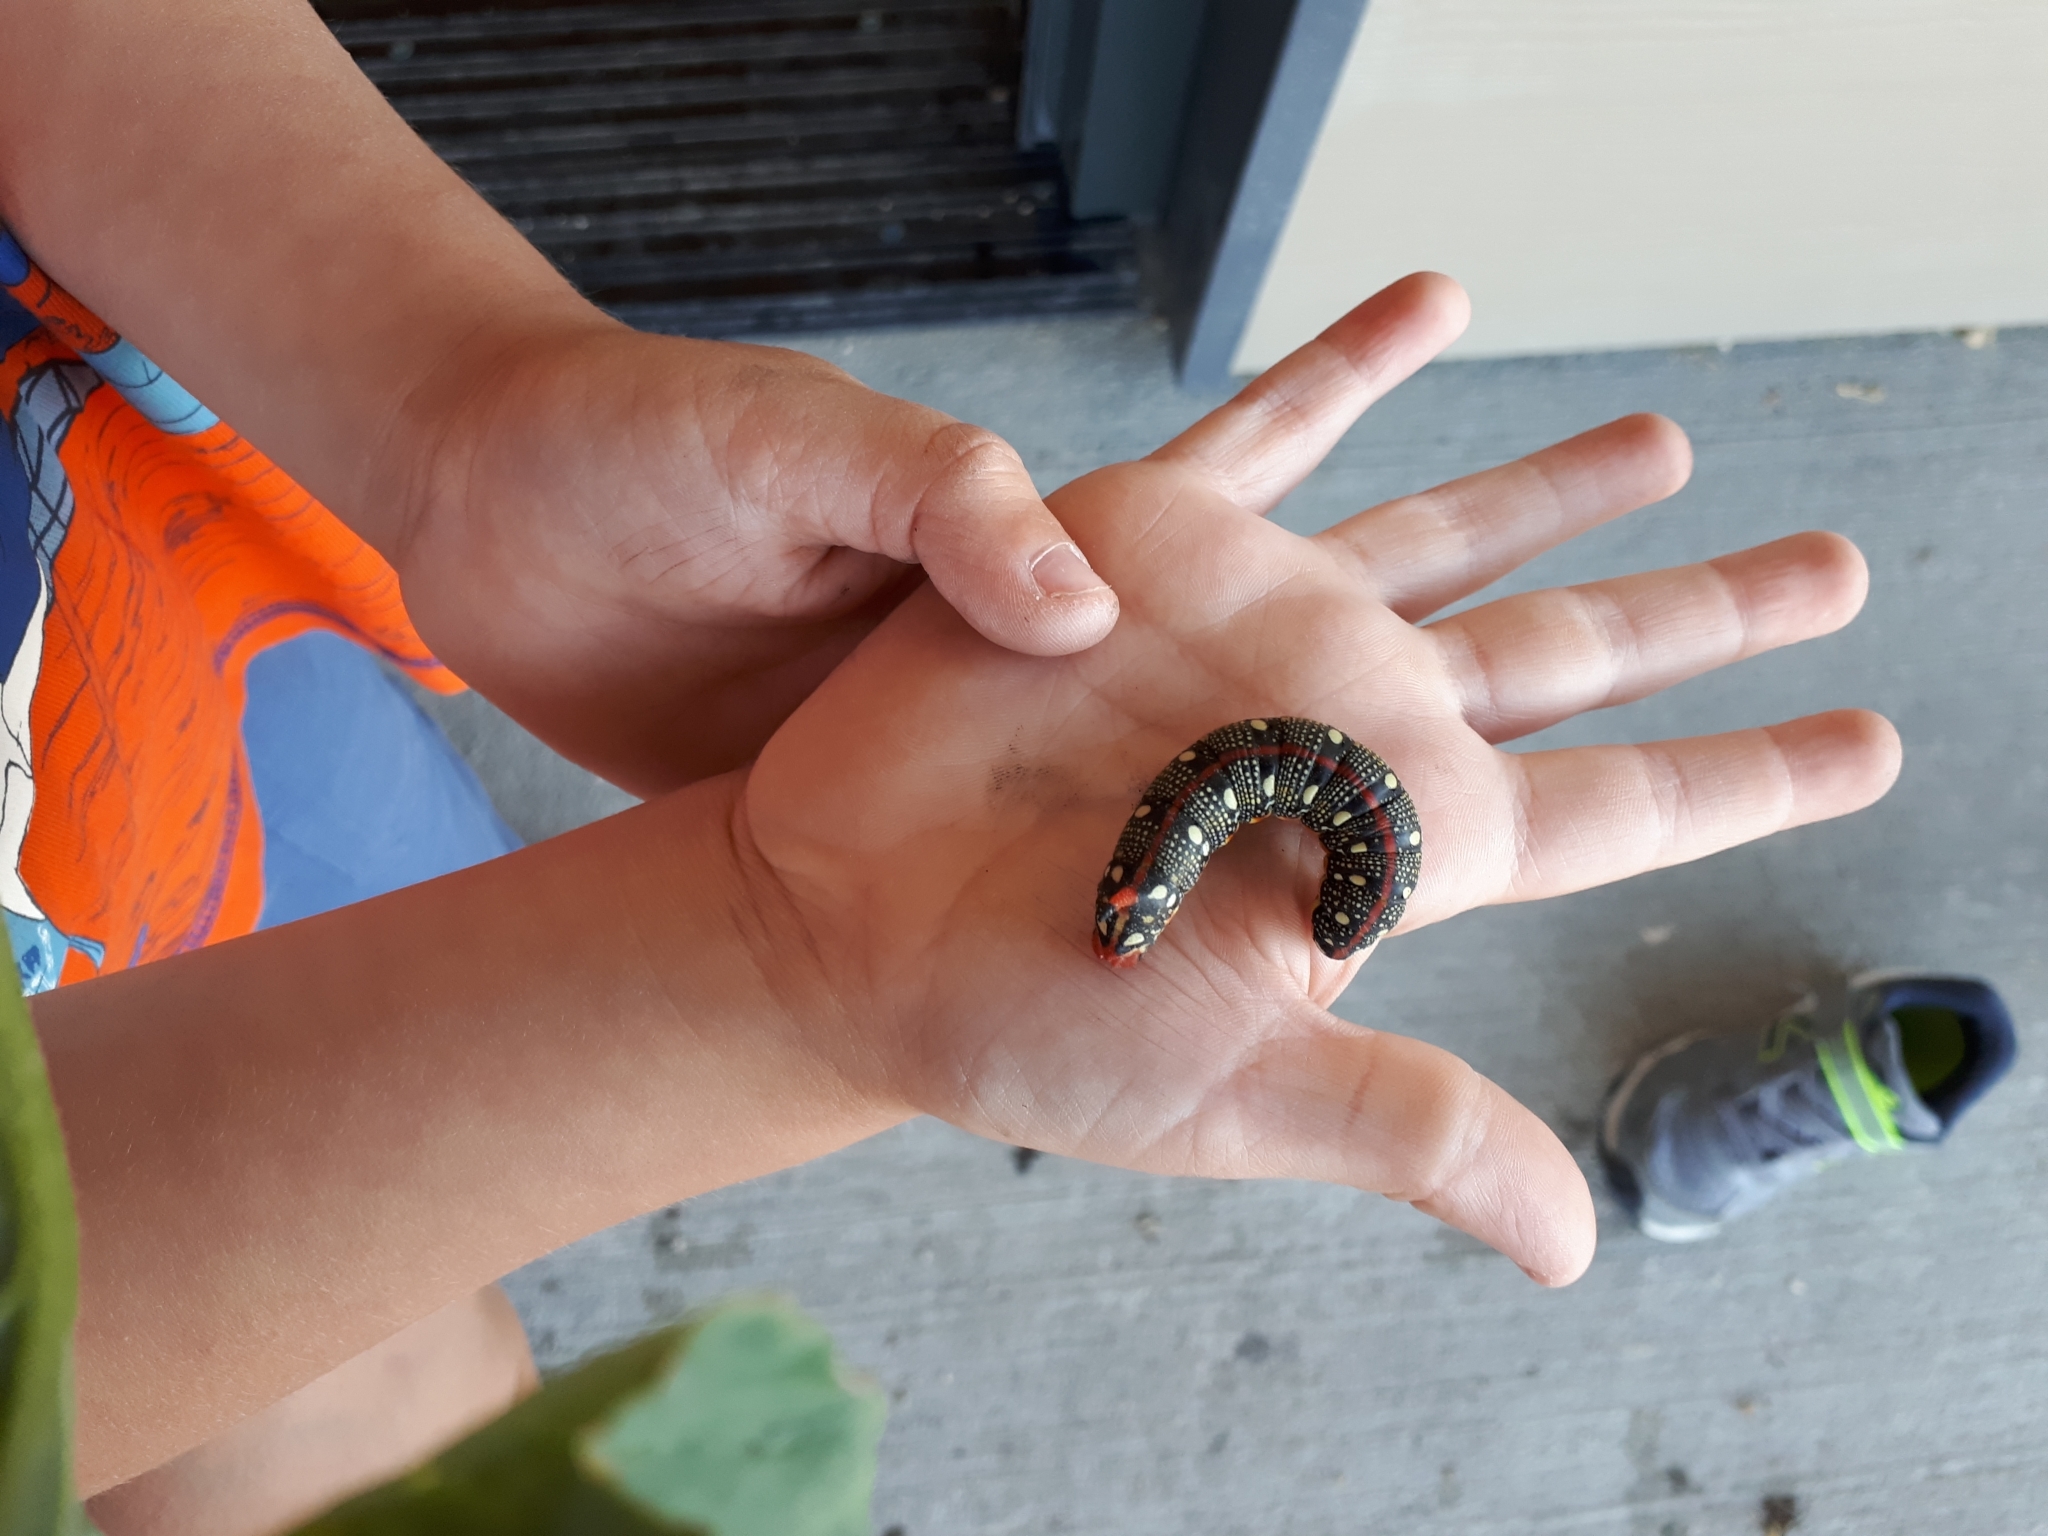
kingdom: Animalia
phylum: Arthropoda
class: Insecta
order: Lepidoptera
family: Sphingidae
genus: Hyles
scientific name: Hyles euphorbiae
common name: Spurge hawk-moth
